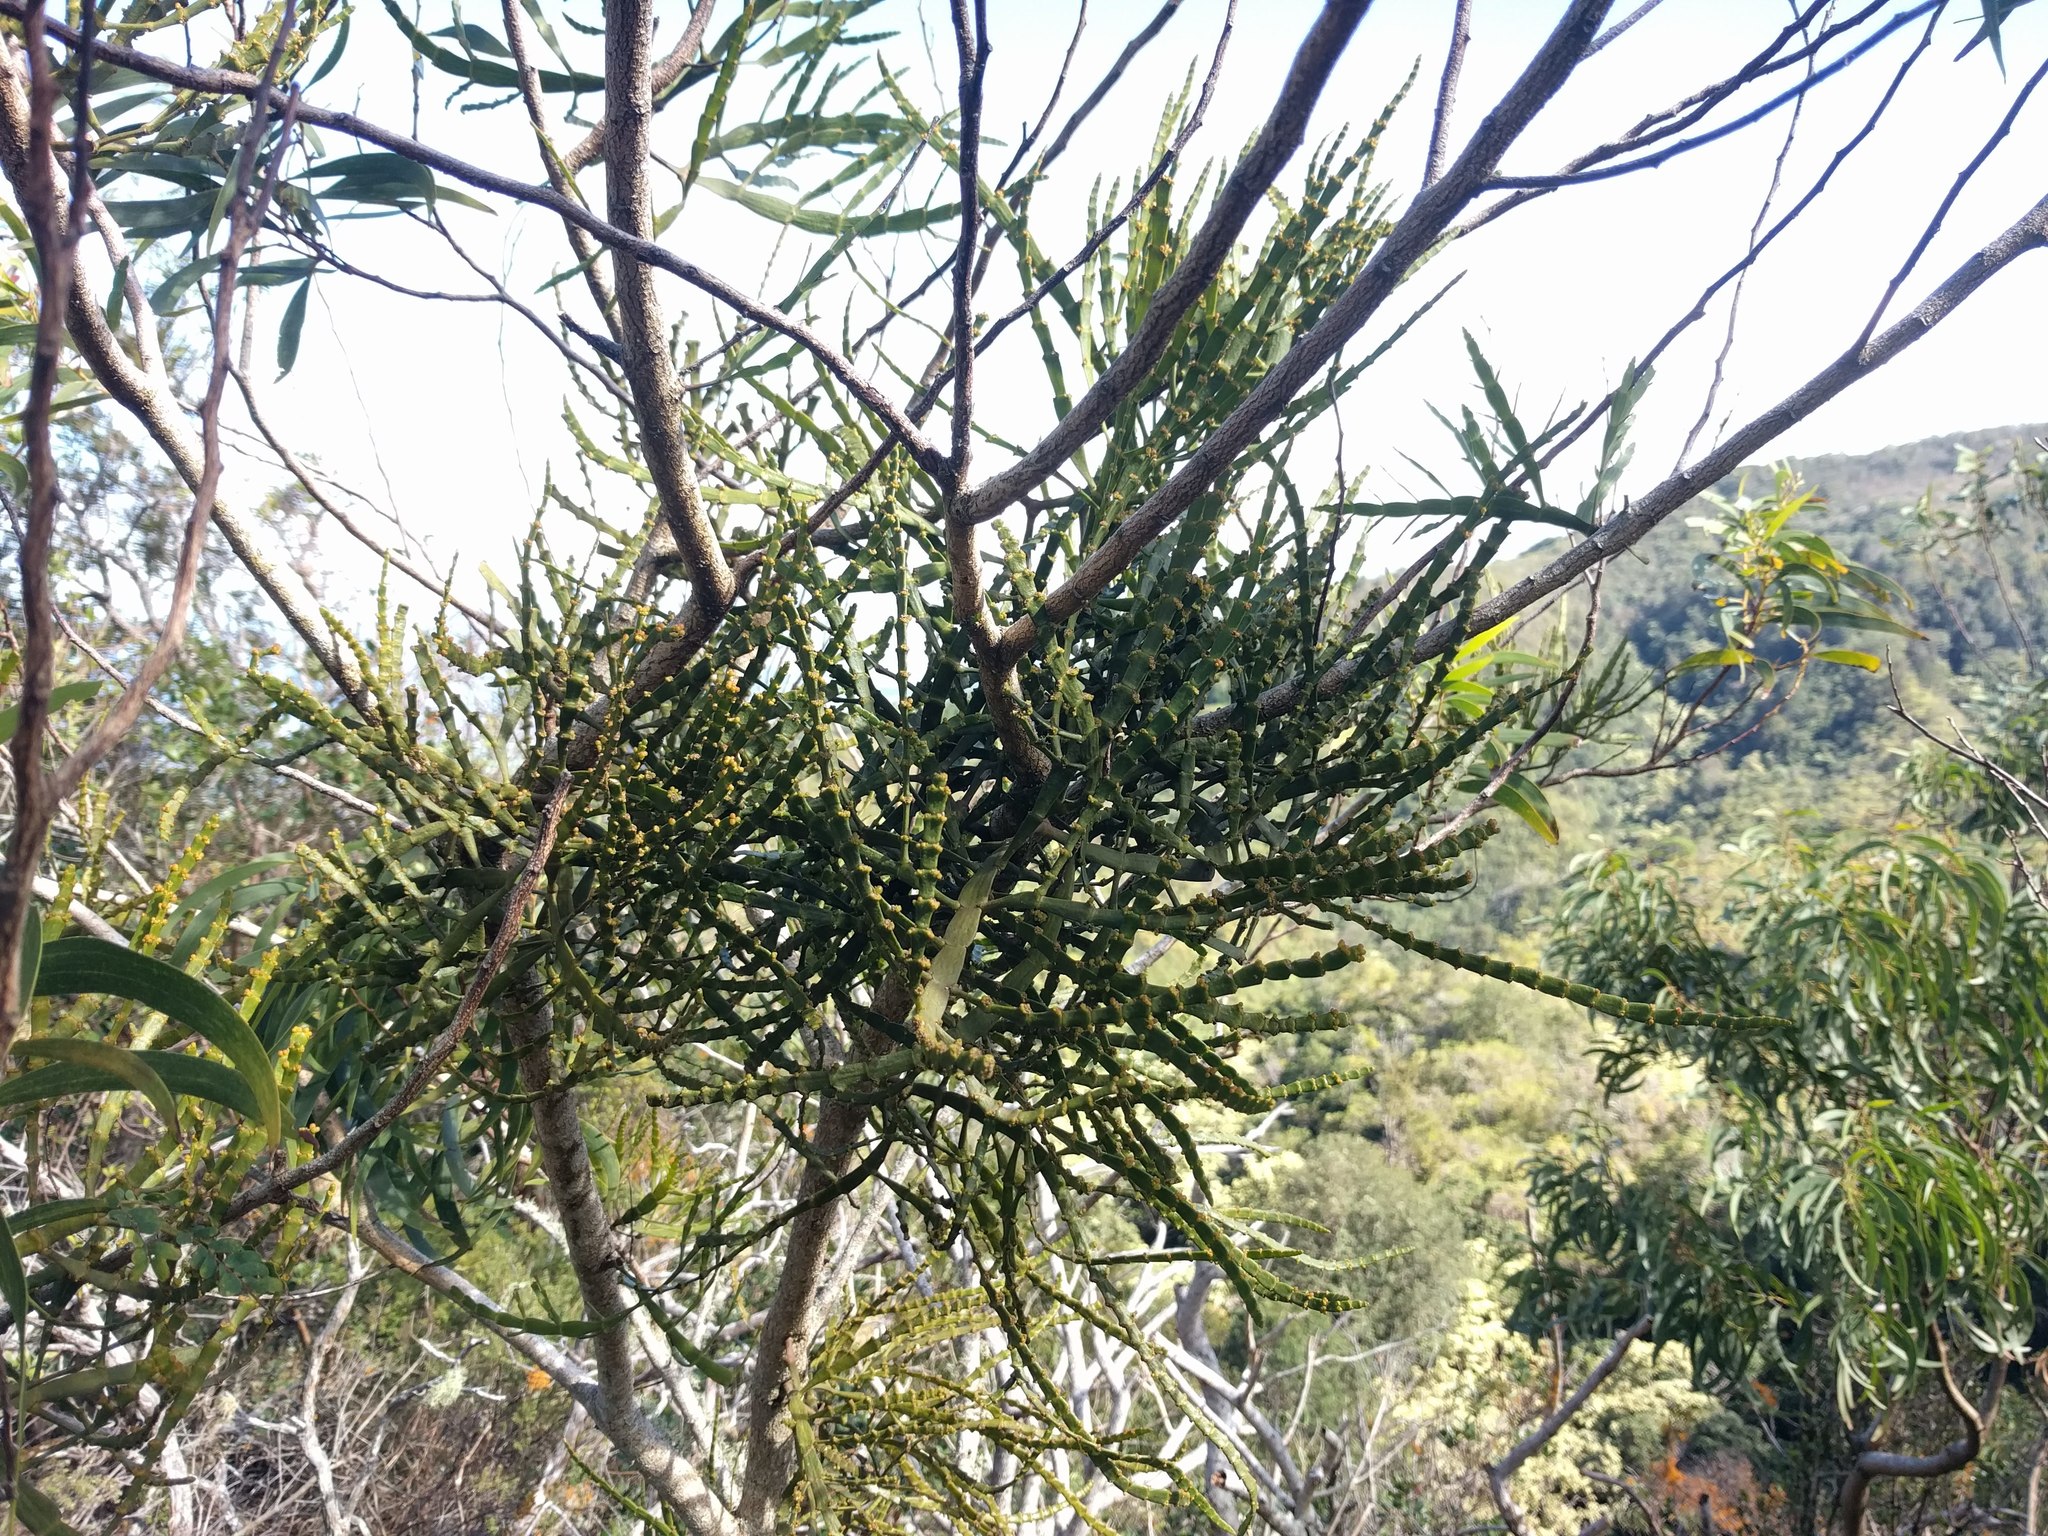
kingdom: Plantae
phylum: Tracheophyta
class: Magnoliopsida
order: Santalales
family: Viscaceae
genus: Korthalsella
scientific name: Korthalsella complanata
